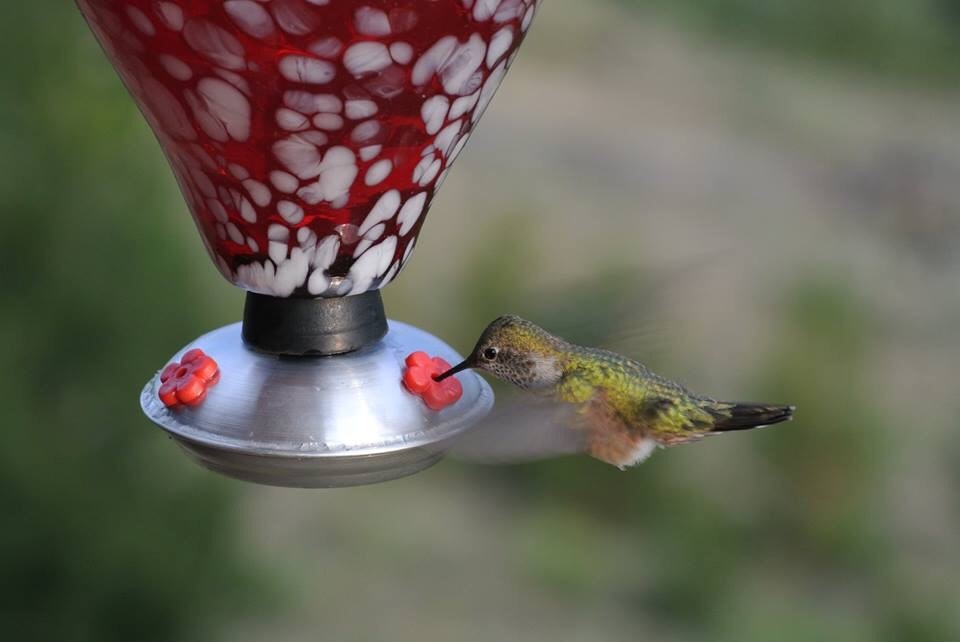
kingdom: Animalia
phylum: Chordata
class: Aves
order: Apodiformes
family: Trochilidae
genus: Selasphorus
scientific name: Selasphorus platycercus
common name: Broad-tailed hummingbird
